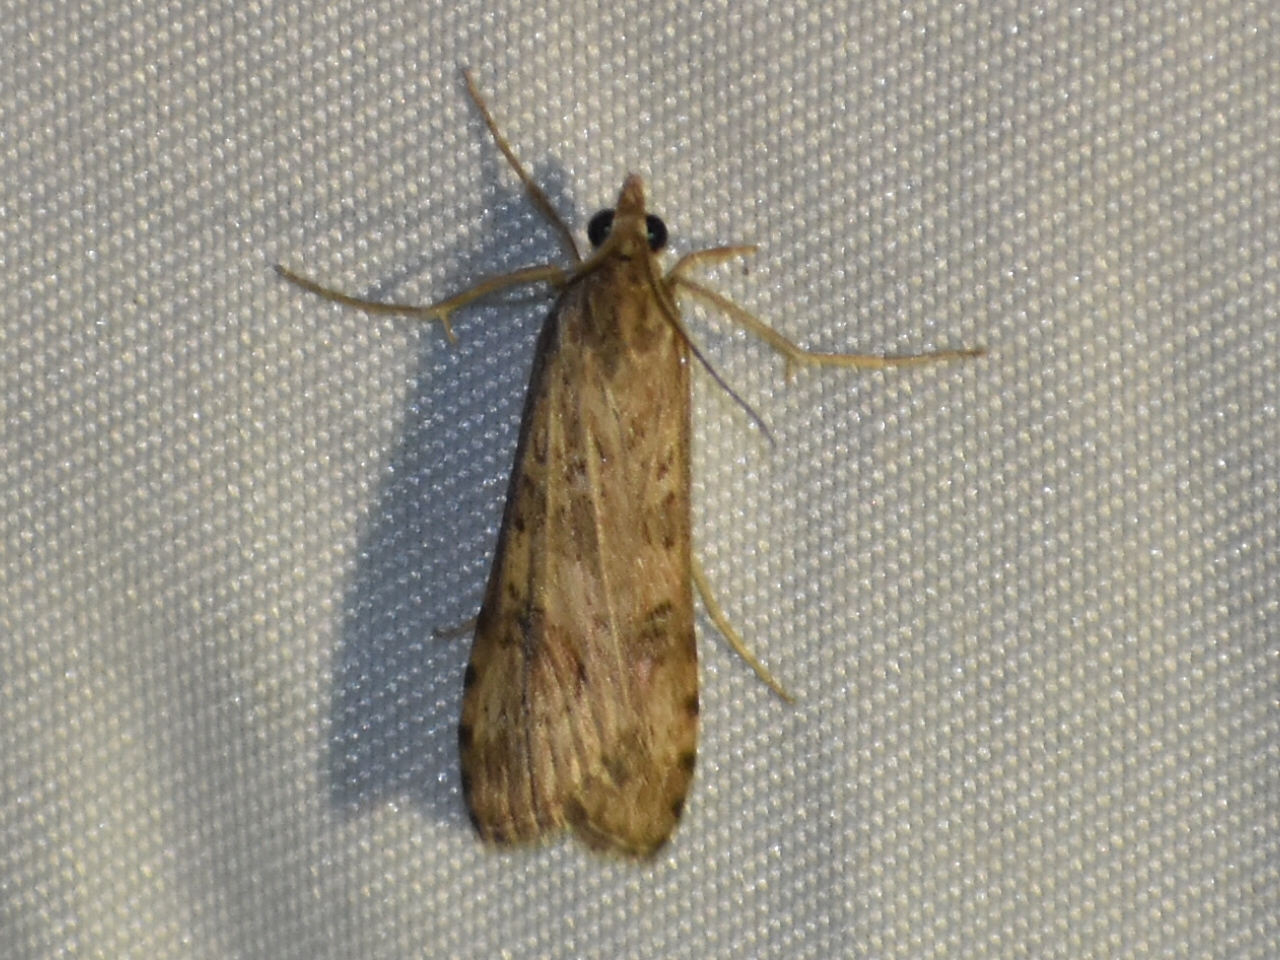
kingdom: Animalia
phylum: Arthropoda
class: Insecta
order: Lepidoptera
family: Crambidae
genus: Nomophila
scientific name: Nomophila nearctica
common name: American rush veneer
